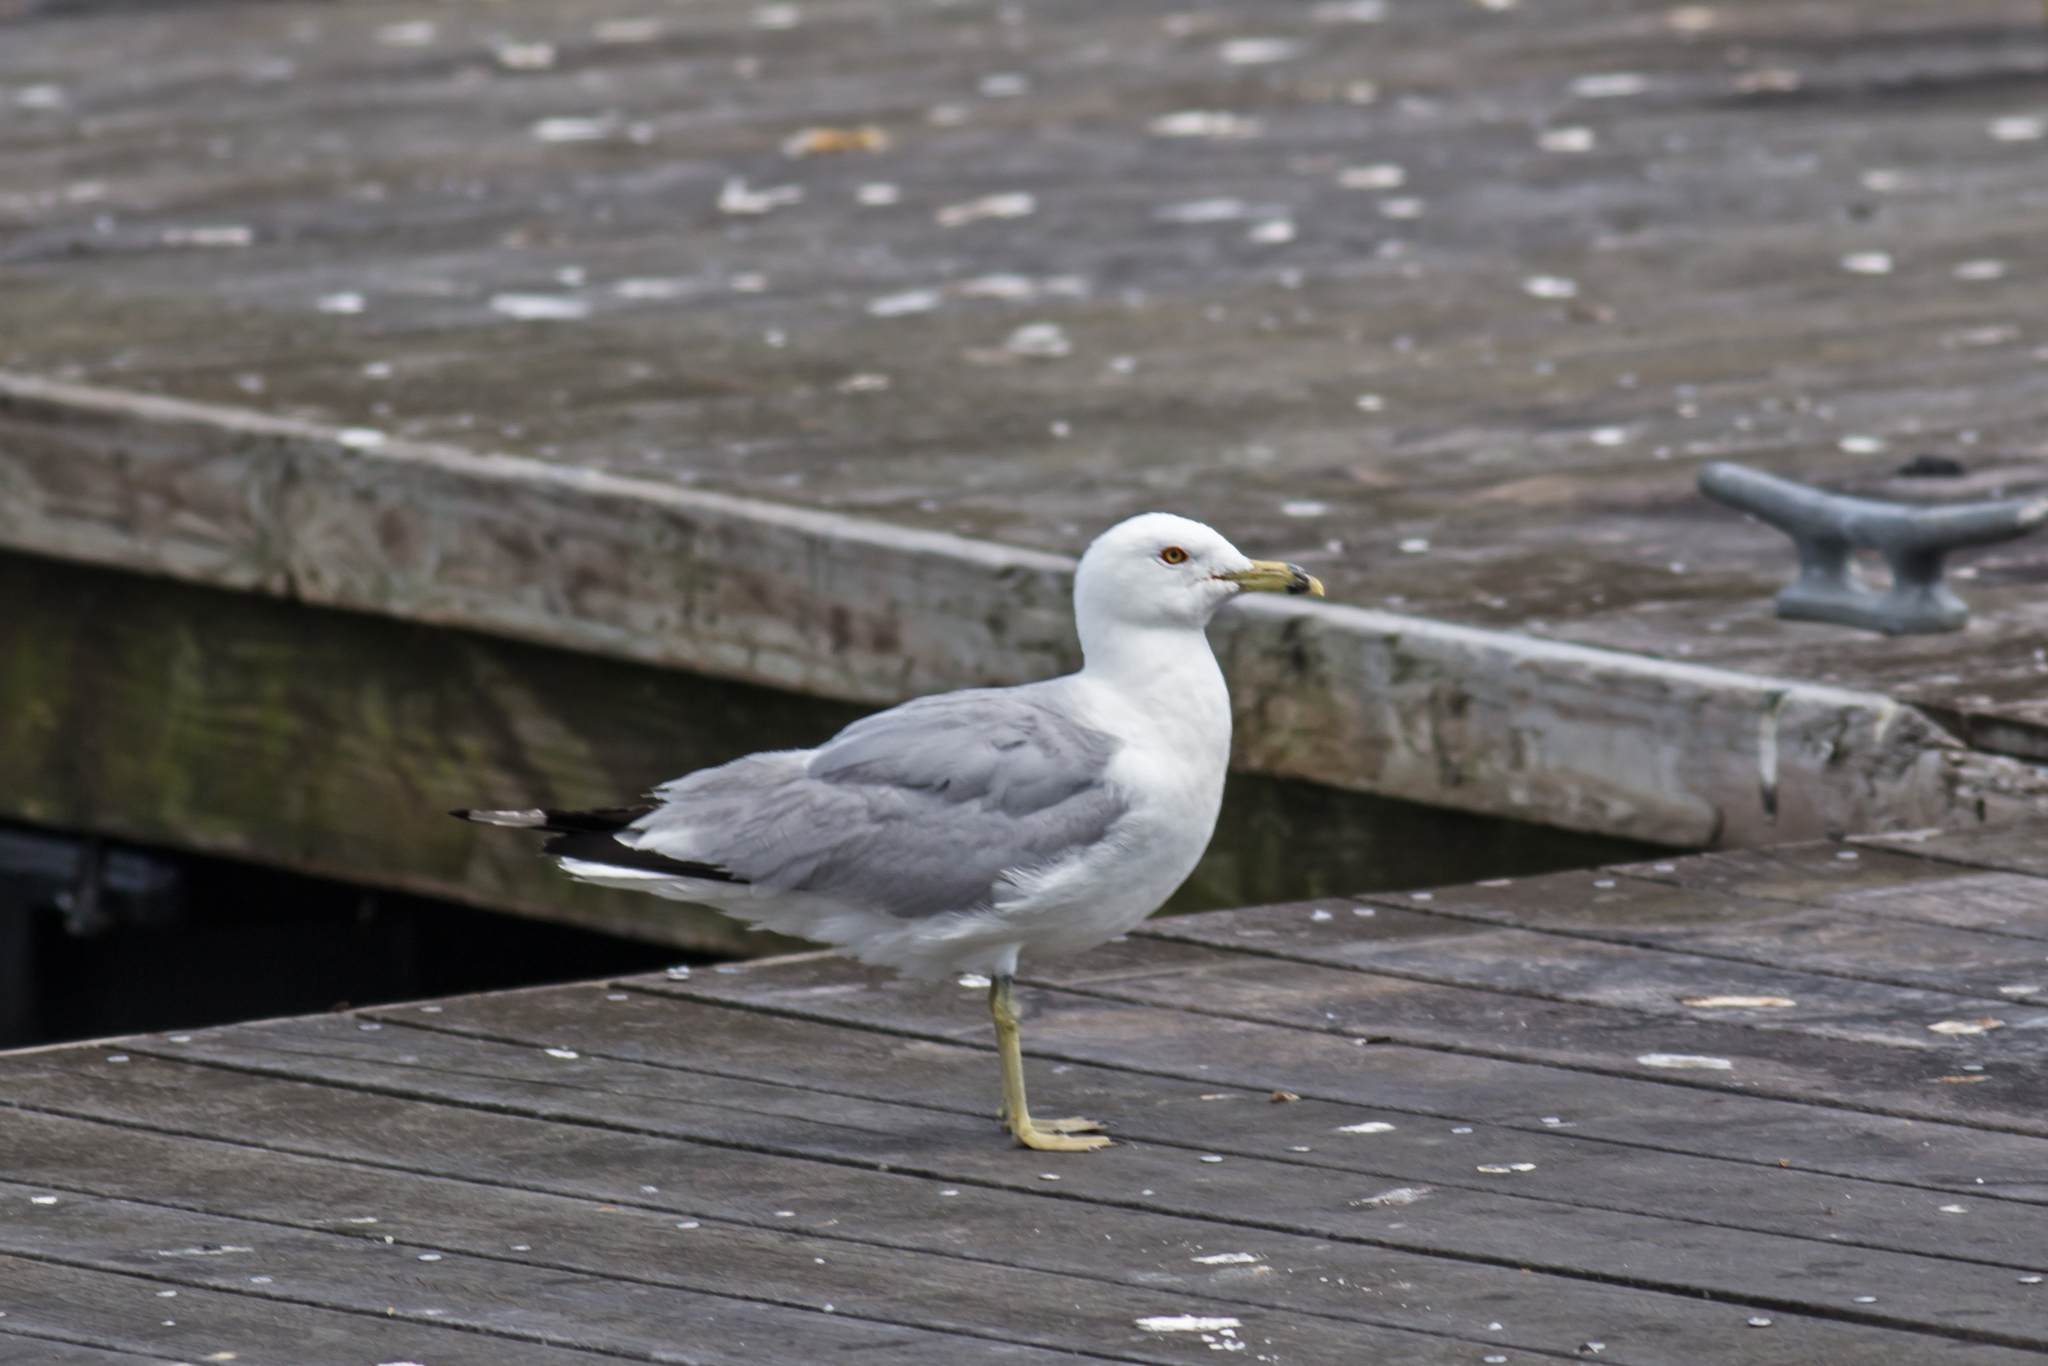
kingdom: Animalia
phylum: Chordata
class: Aves
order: Charadriiformes
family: Laridae
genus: Larus
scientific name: Larus delawarensis
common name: Ring-billed gull
